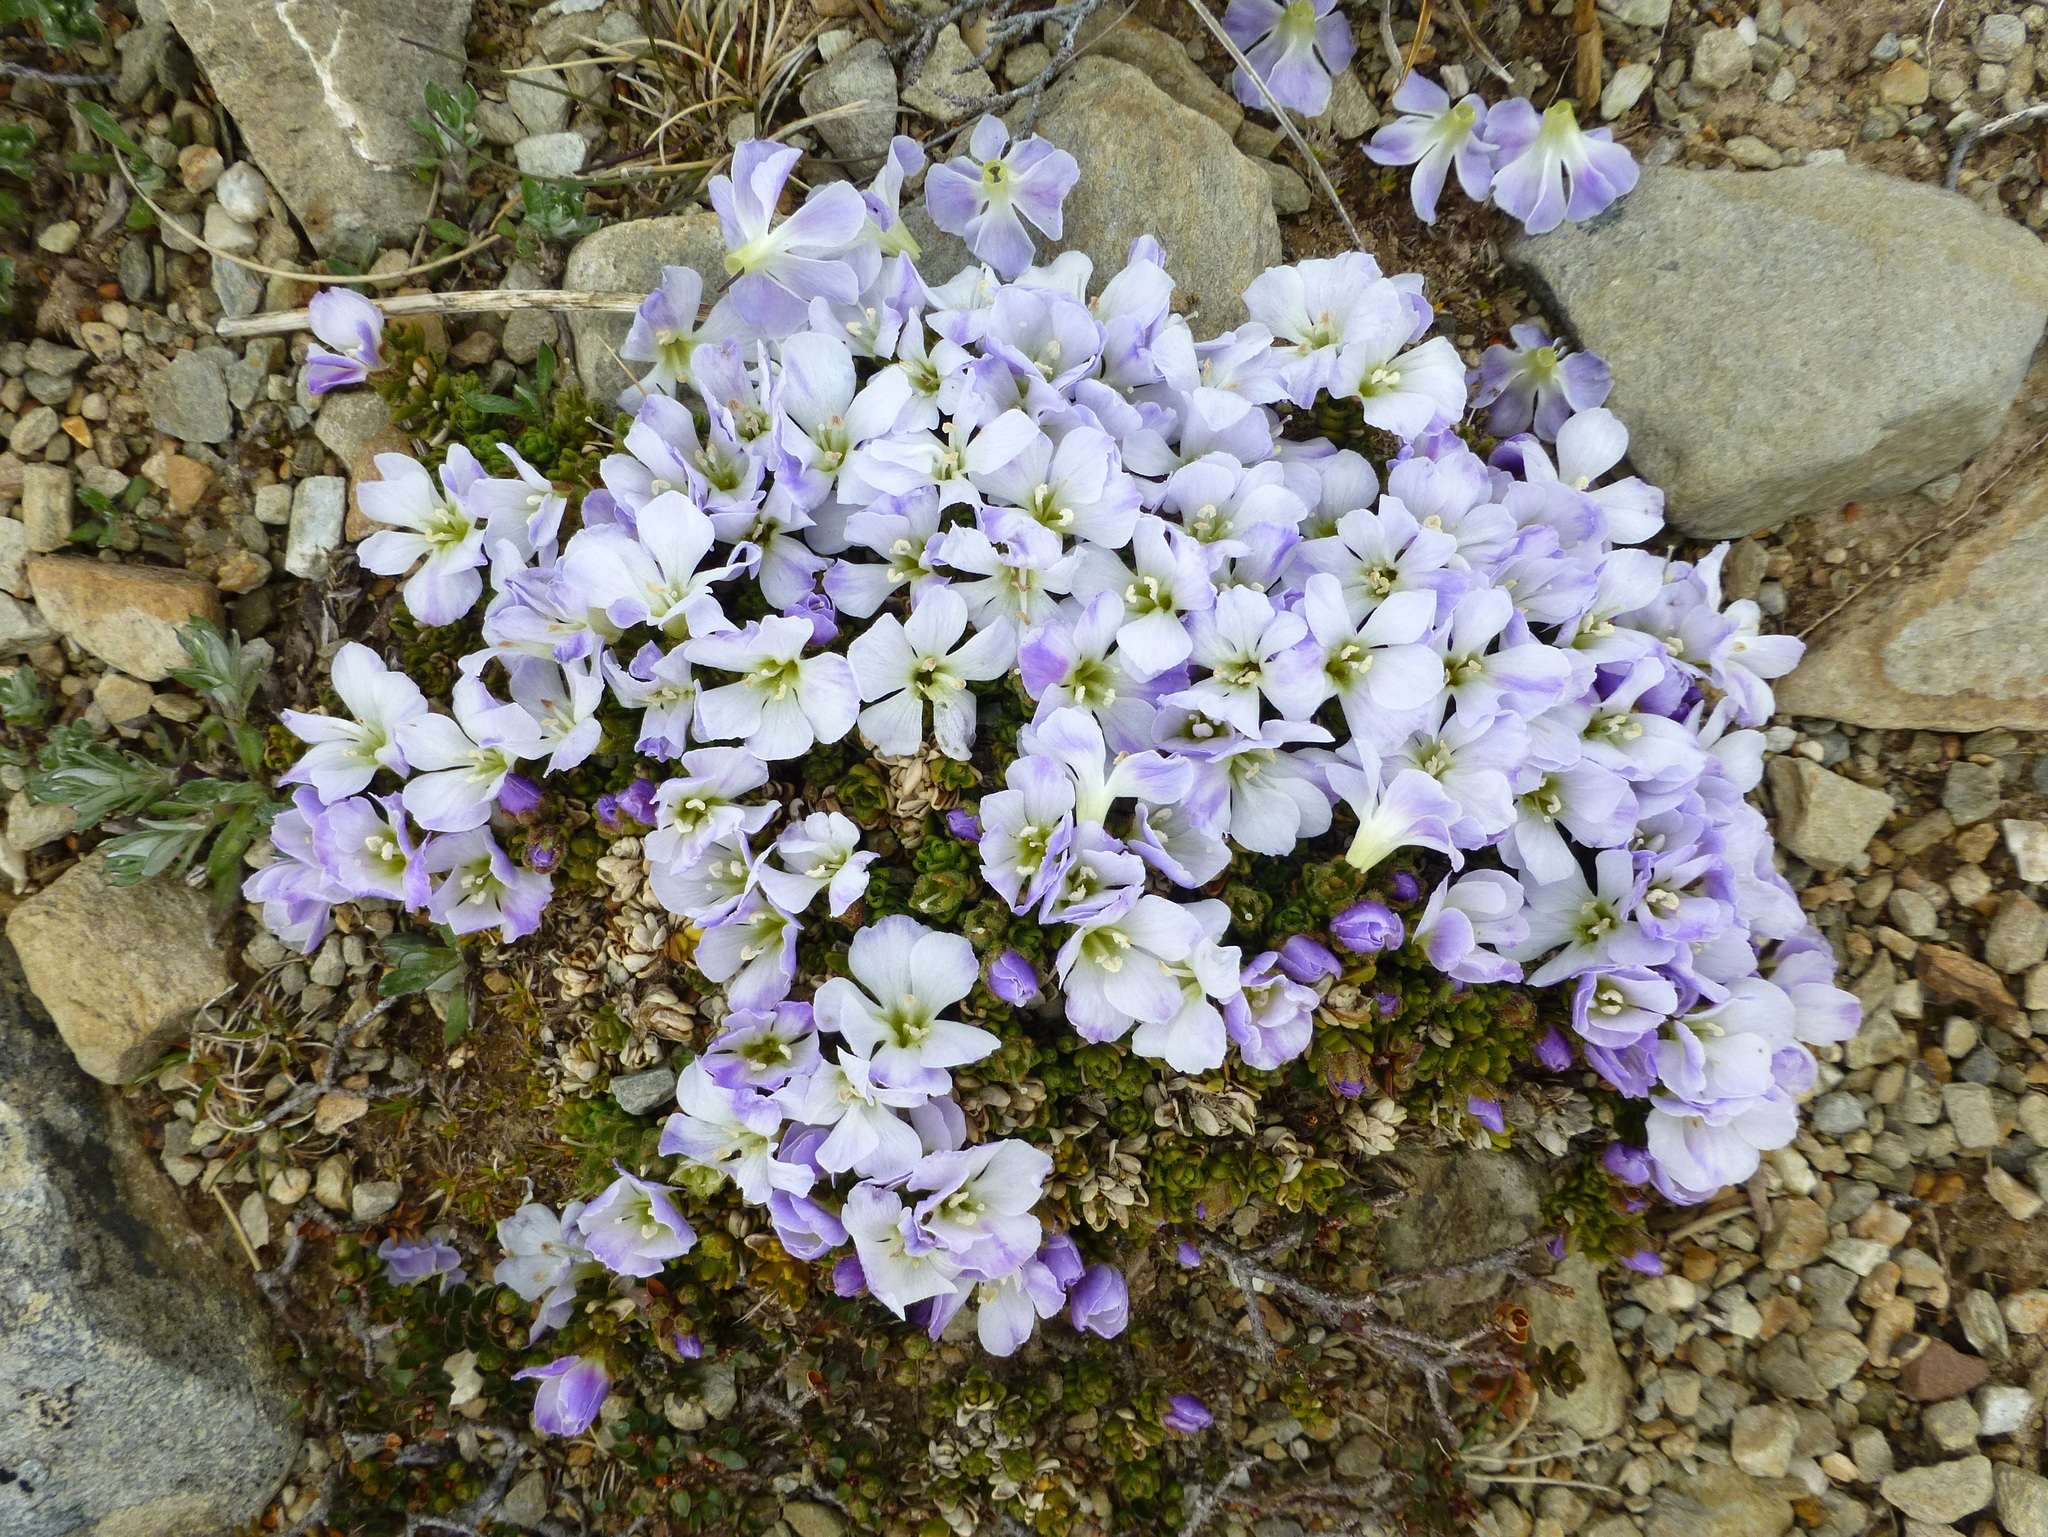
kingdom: Plantae
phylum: Tracheophyta
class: Magnoliopsida
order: Lamiales
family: Plantaginaceae
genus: Veronica
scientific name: Veronica densifolia
